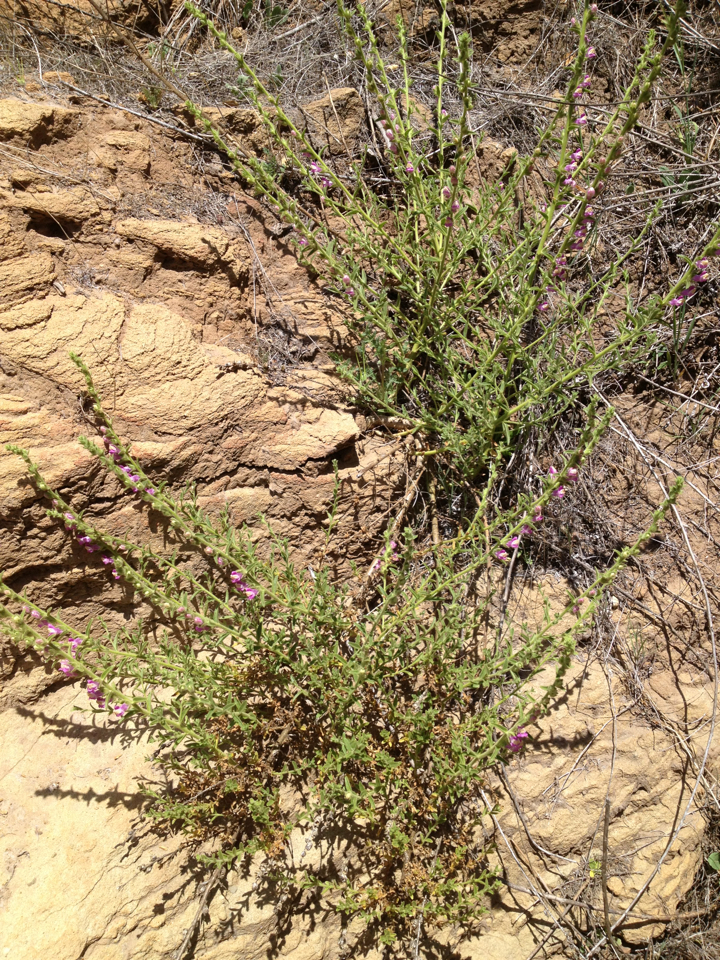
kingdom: Plantae
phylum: Tracheophyta
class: Magnoliopsida
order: Lamiales
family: Plantaginaceae
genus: Sairocarpus
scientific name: Sairocarpus multiflorus
